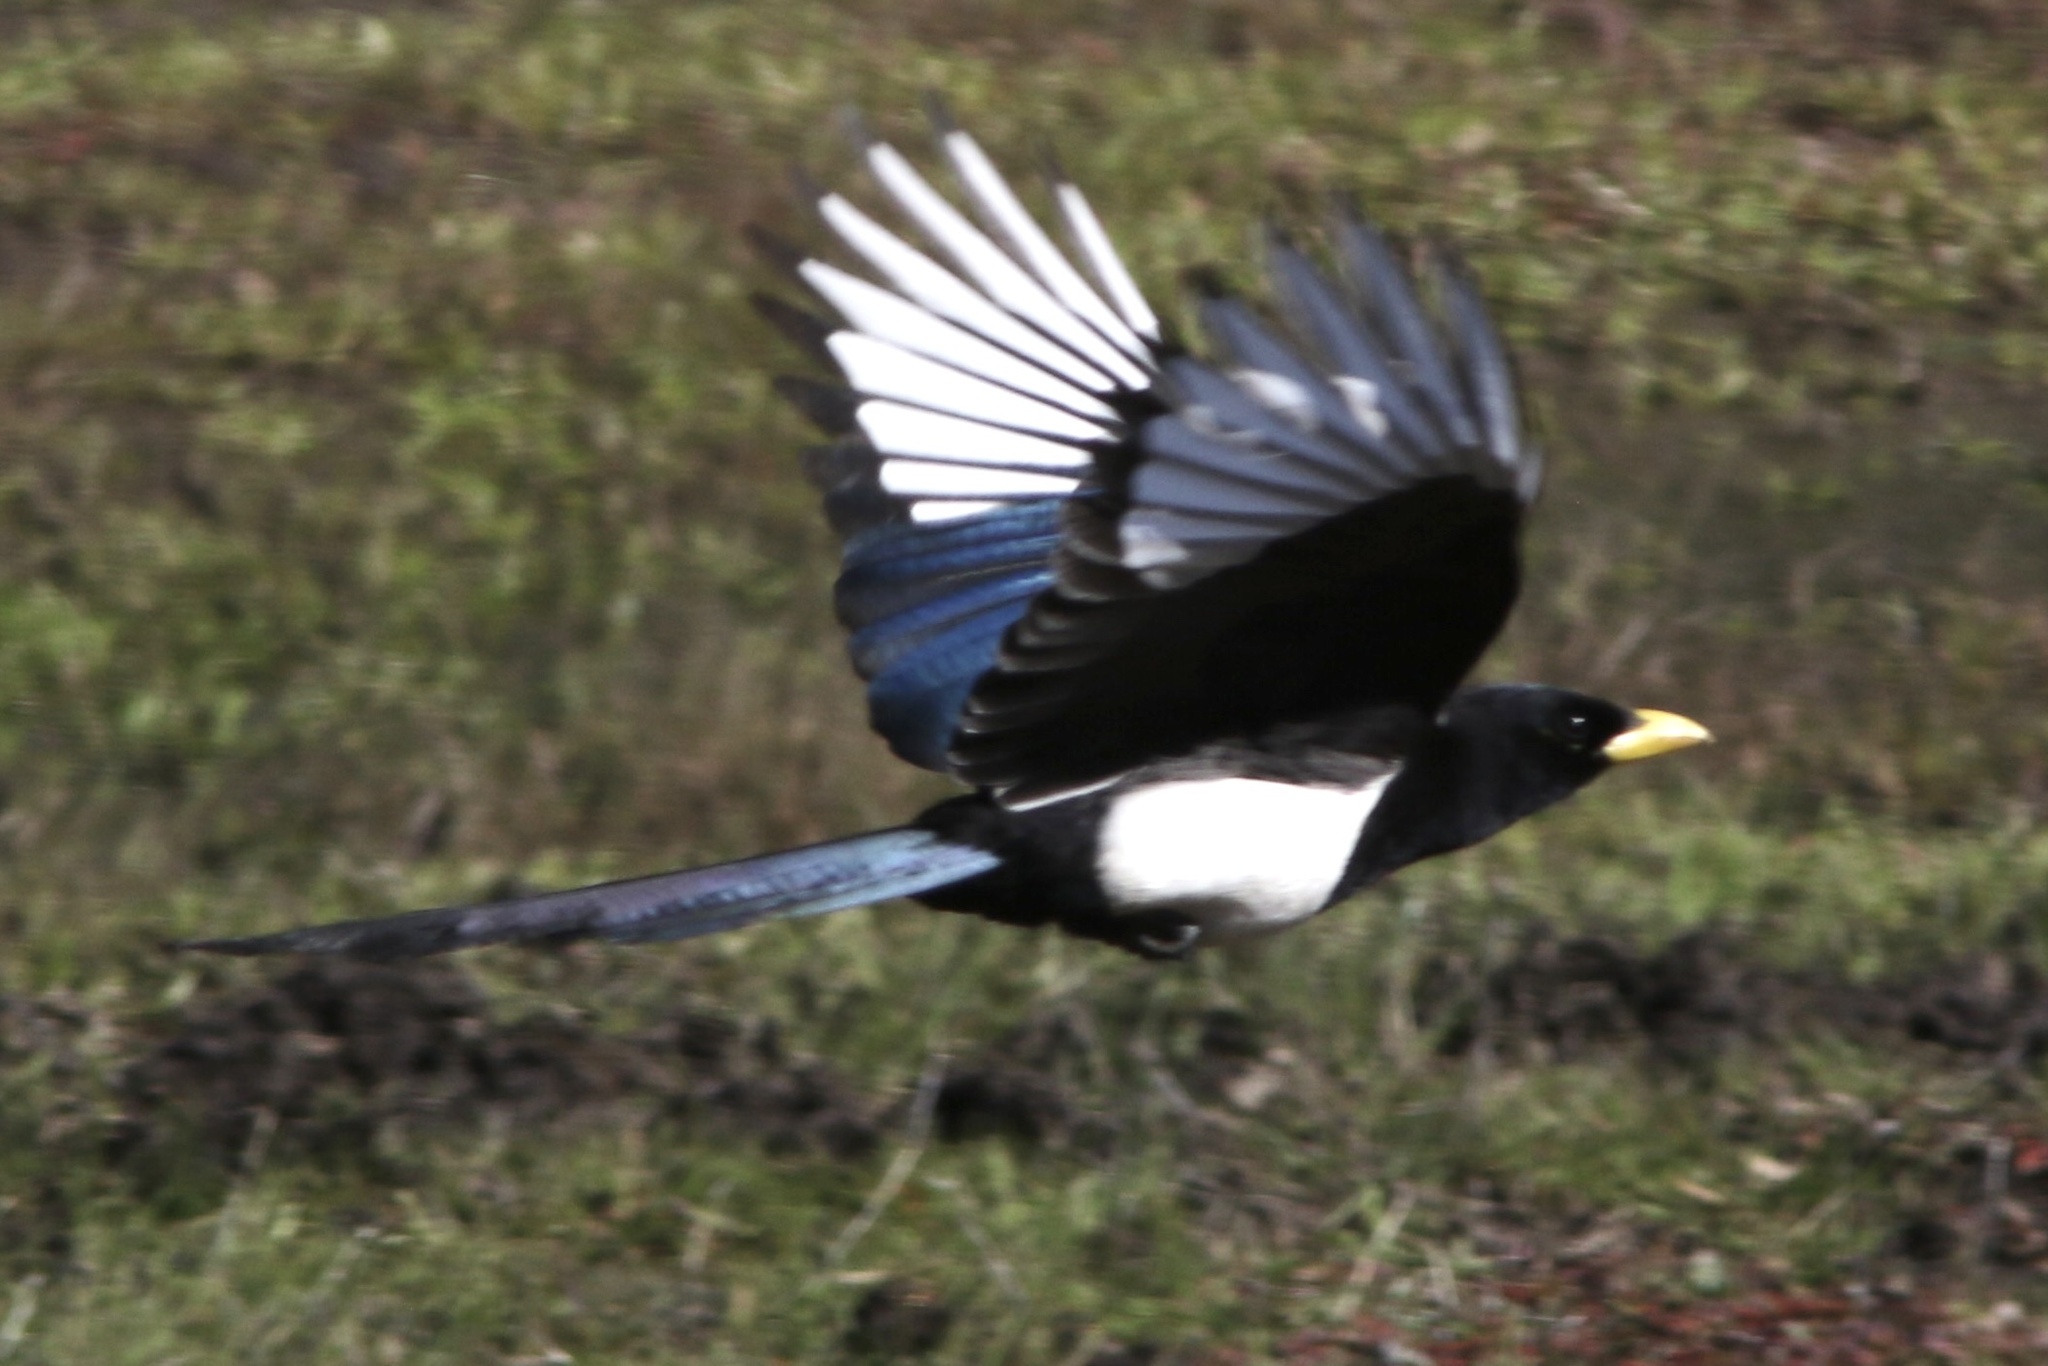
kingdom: Animalia
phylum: Chordata
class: Aves
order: Passeriformes
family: Corvidae
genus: Pica
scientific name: Pica nuttalli
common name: Yellow-billed magpie
